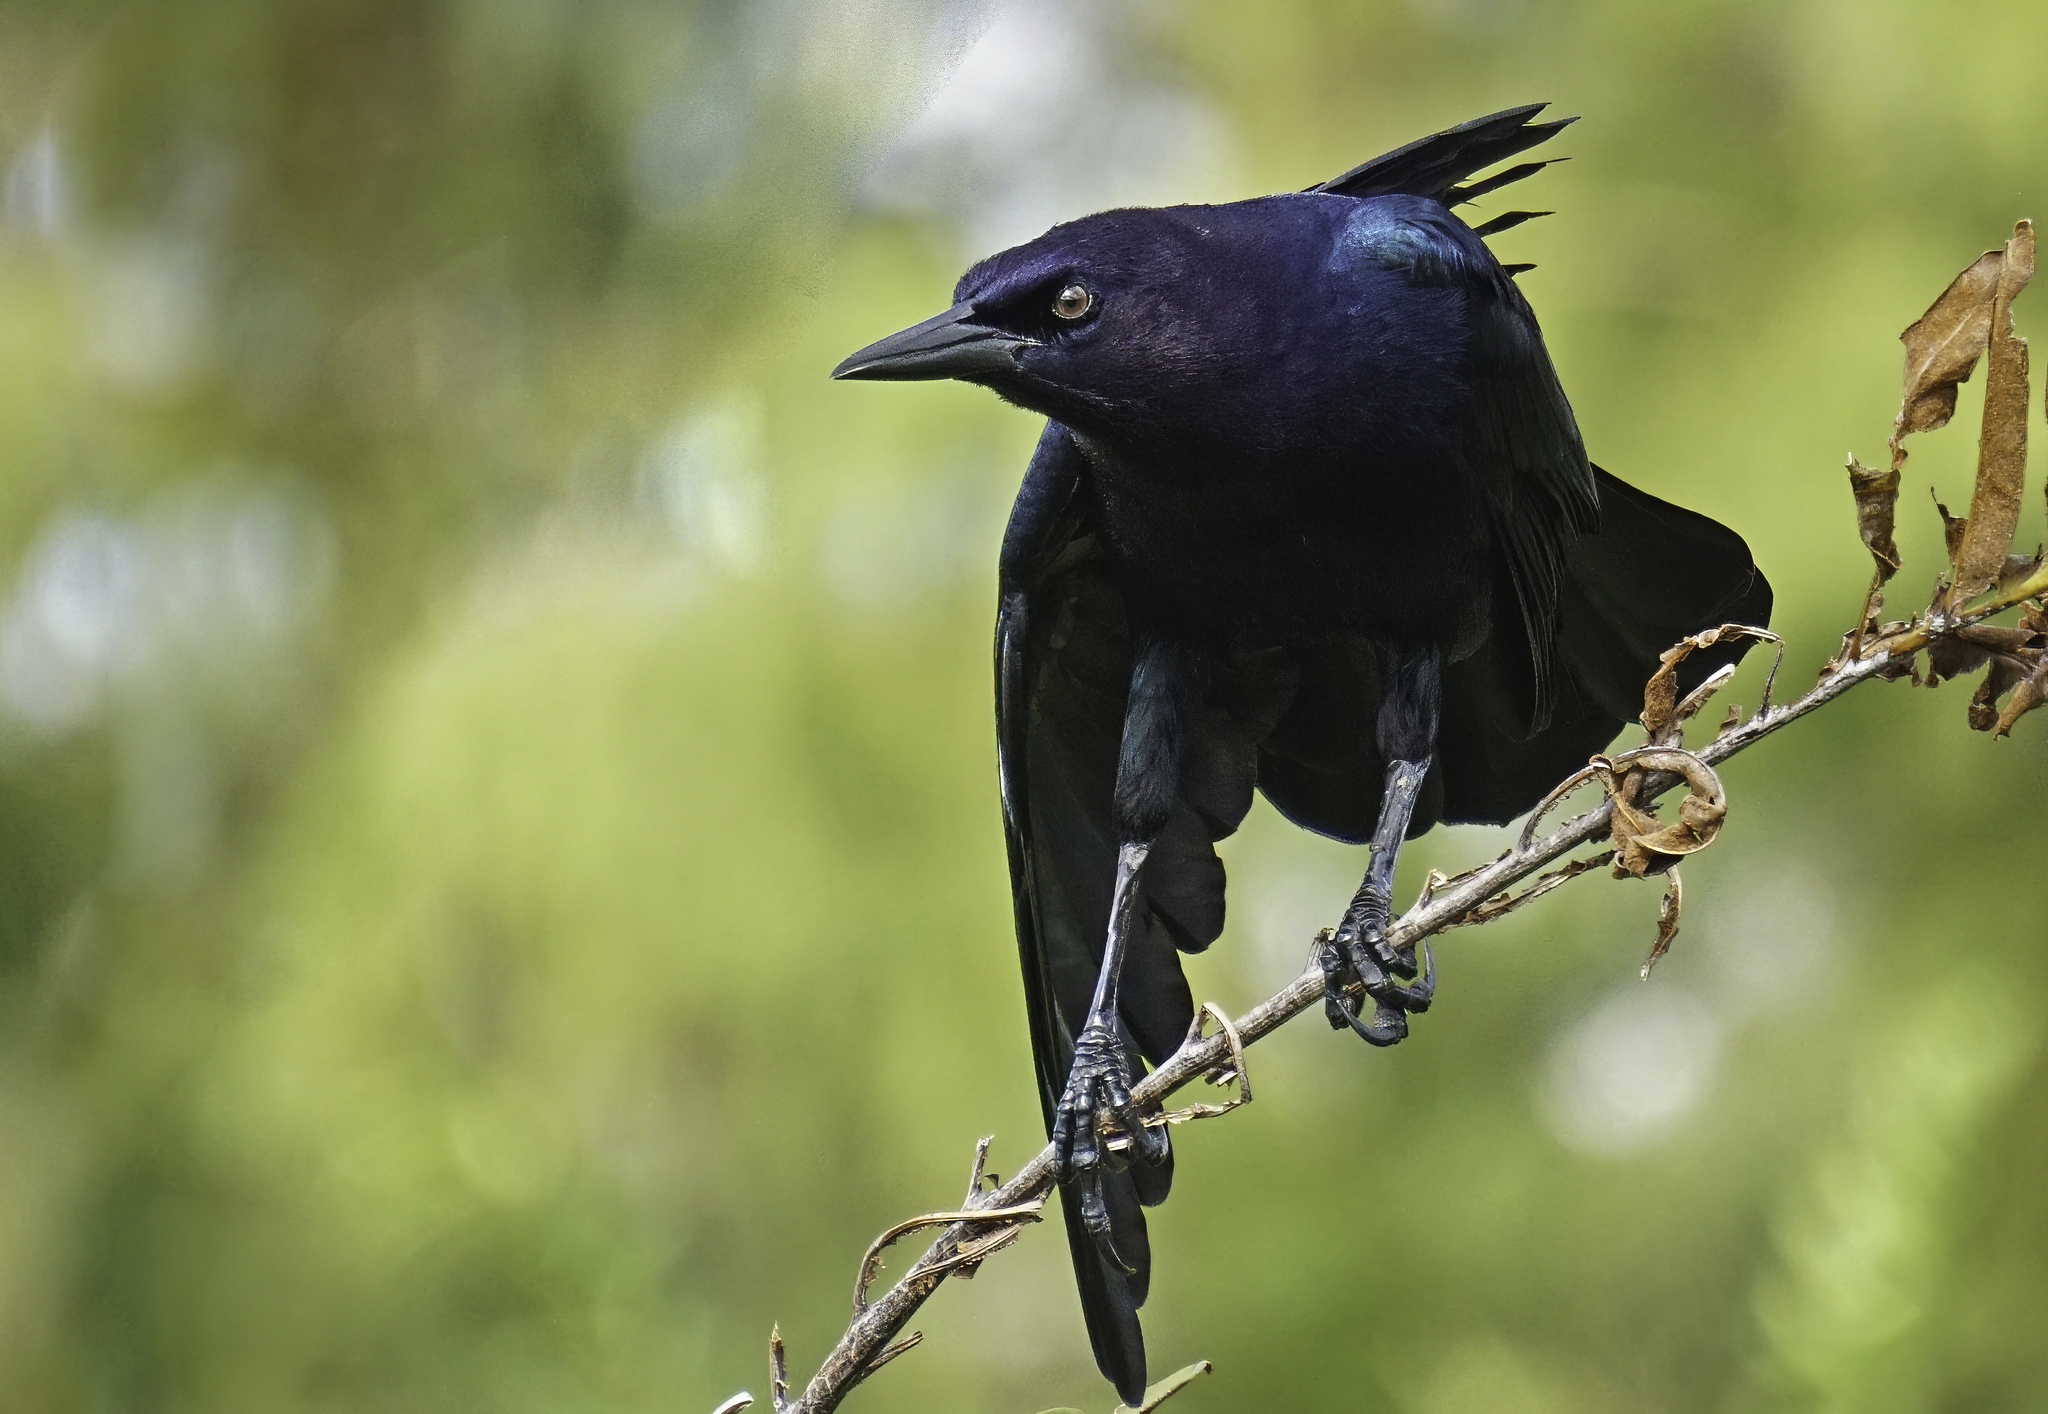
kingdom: Animalia
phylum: Chordata
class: Aves
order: Passeriformes
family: Icteridae
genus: Quiscalus
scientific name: Quiscalus major
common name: Boat-tailed grackle
